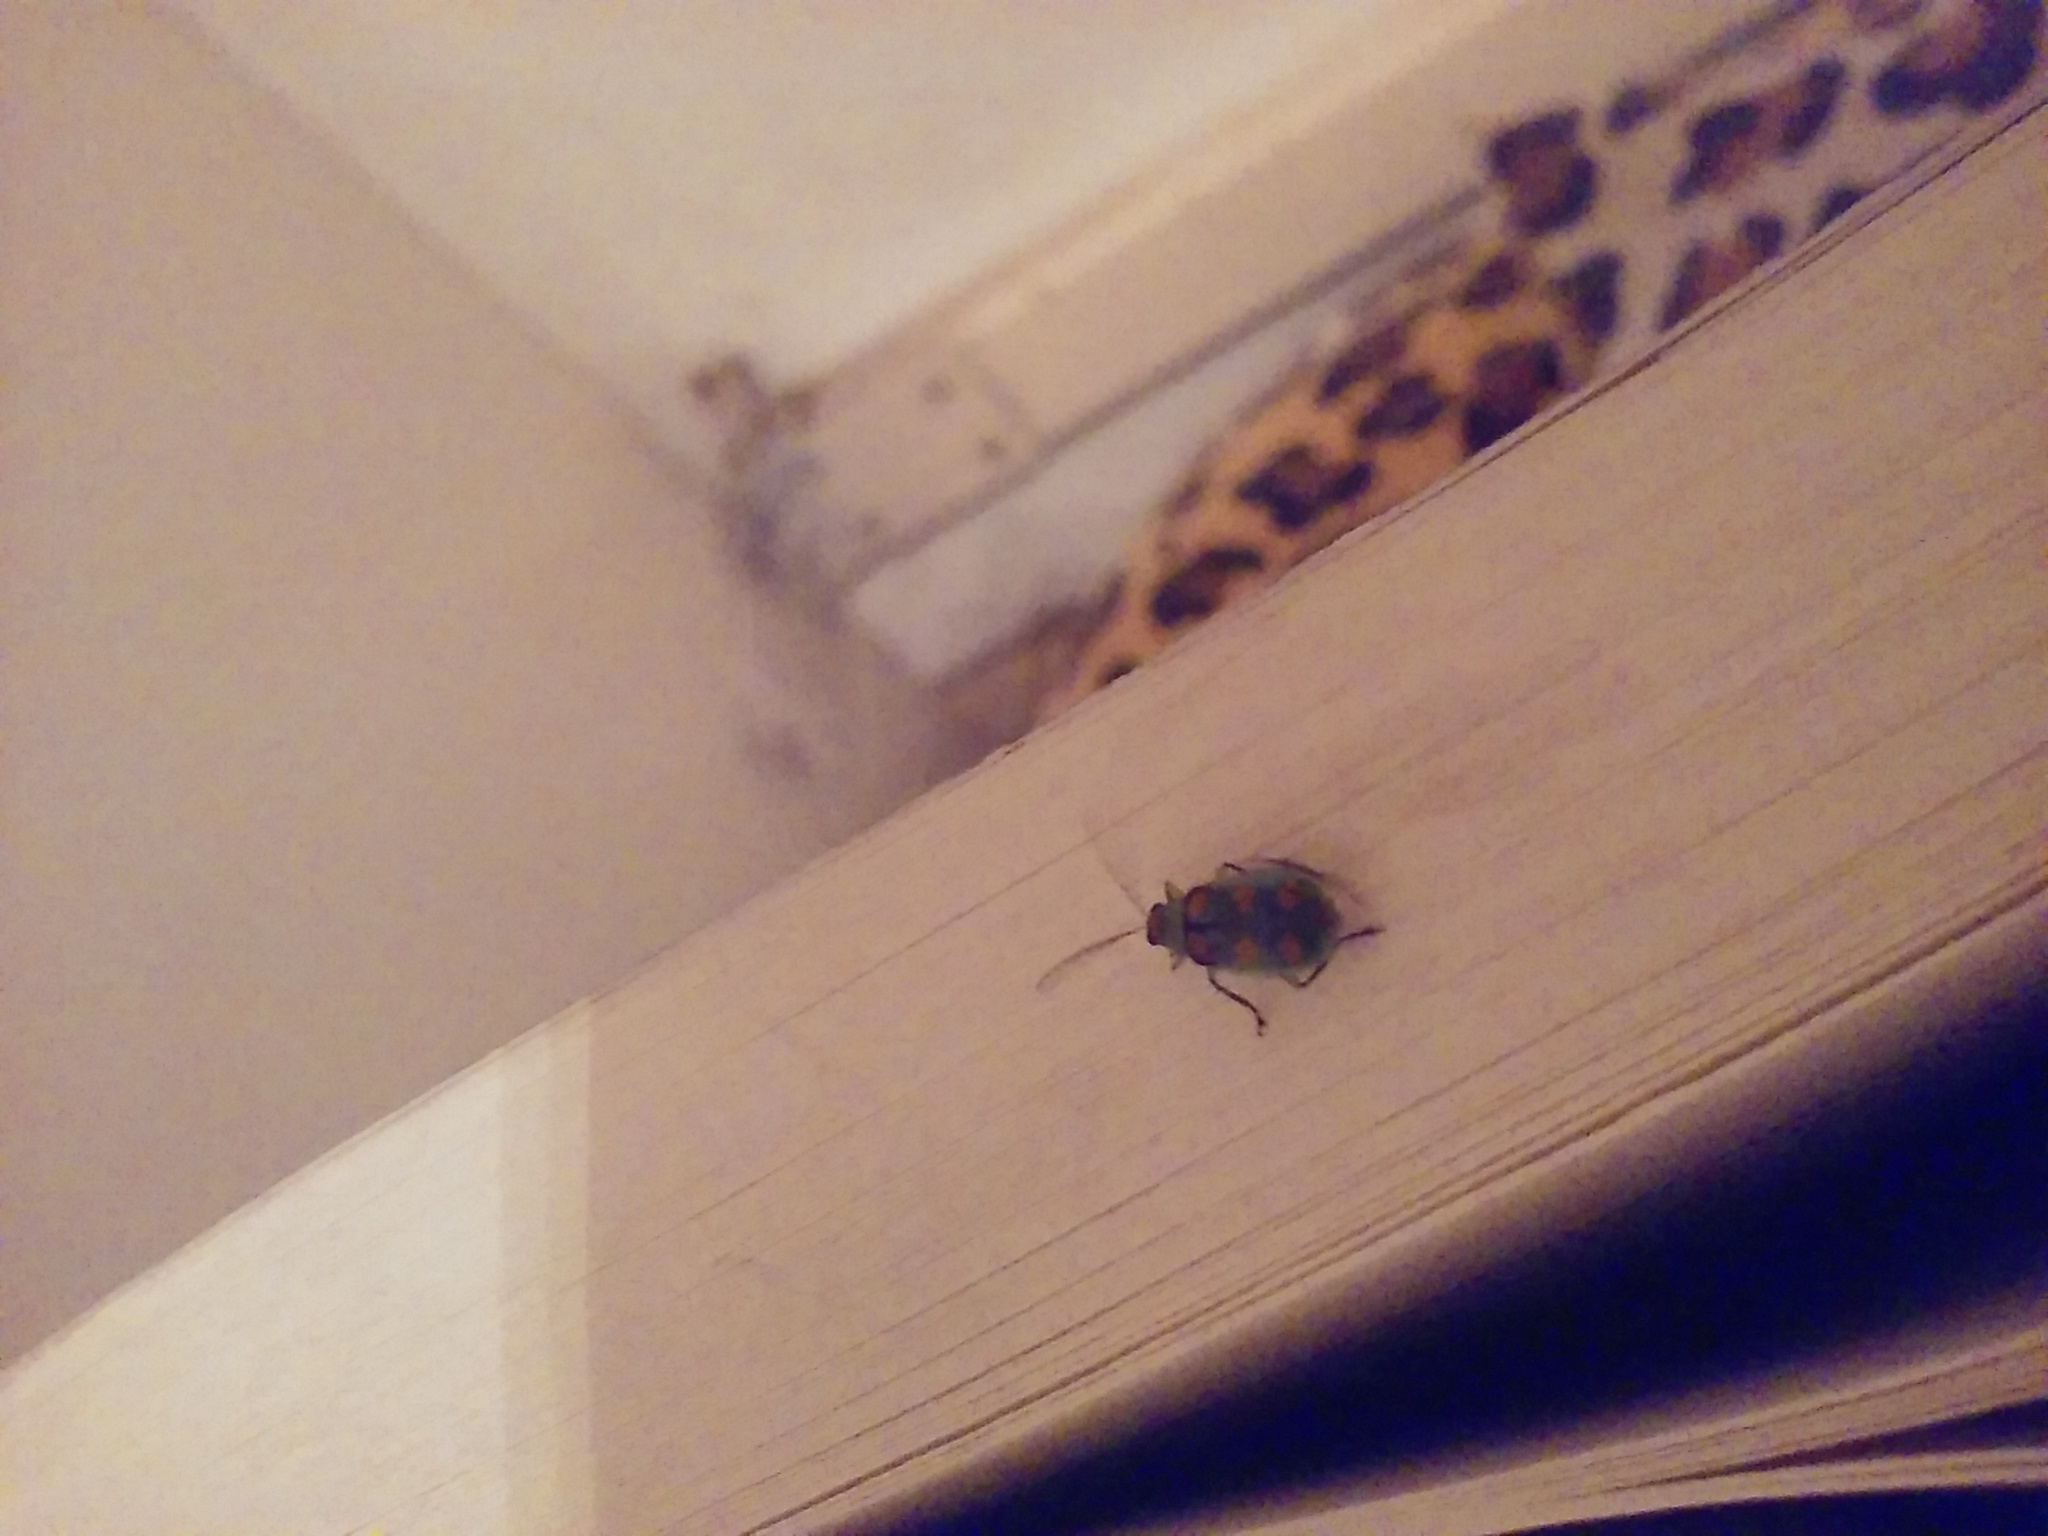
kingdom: Animalia
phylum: Arthropoda
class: Insecta
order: Coleoptera
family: Chrysomelidae
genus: Diabrotica
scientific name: Diabrotica speciosa
